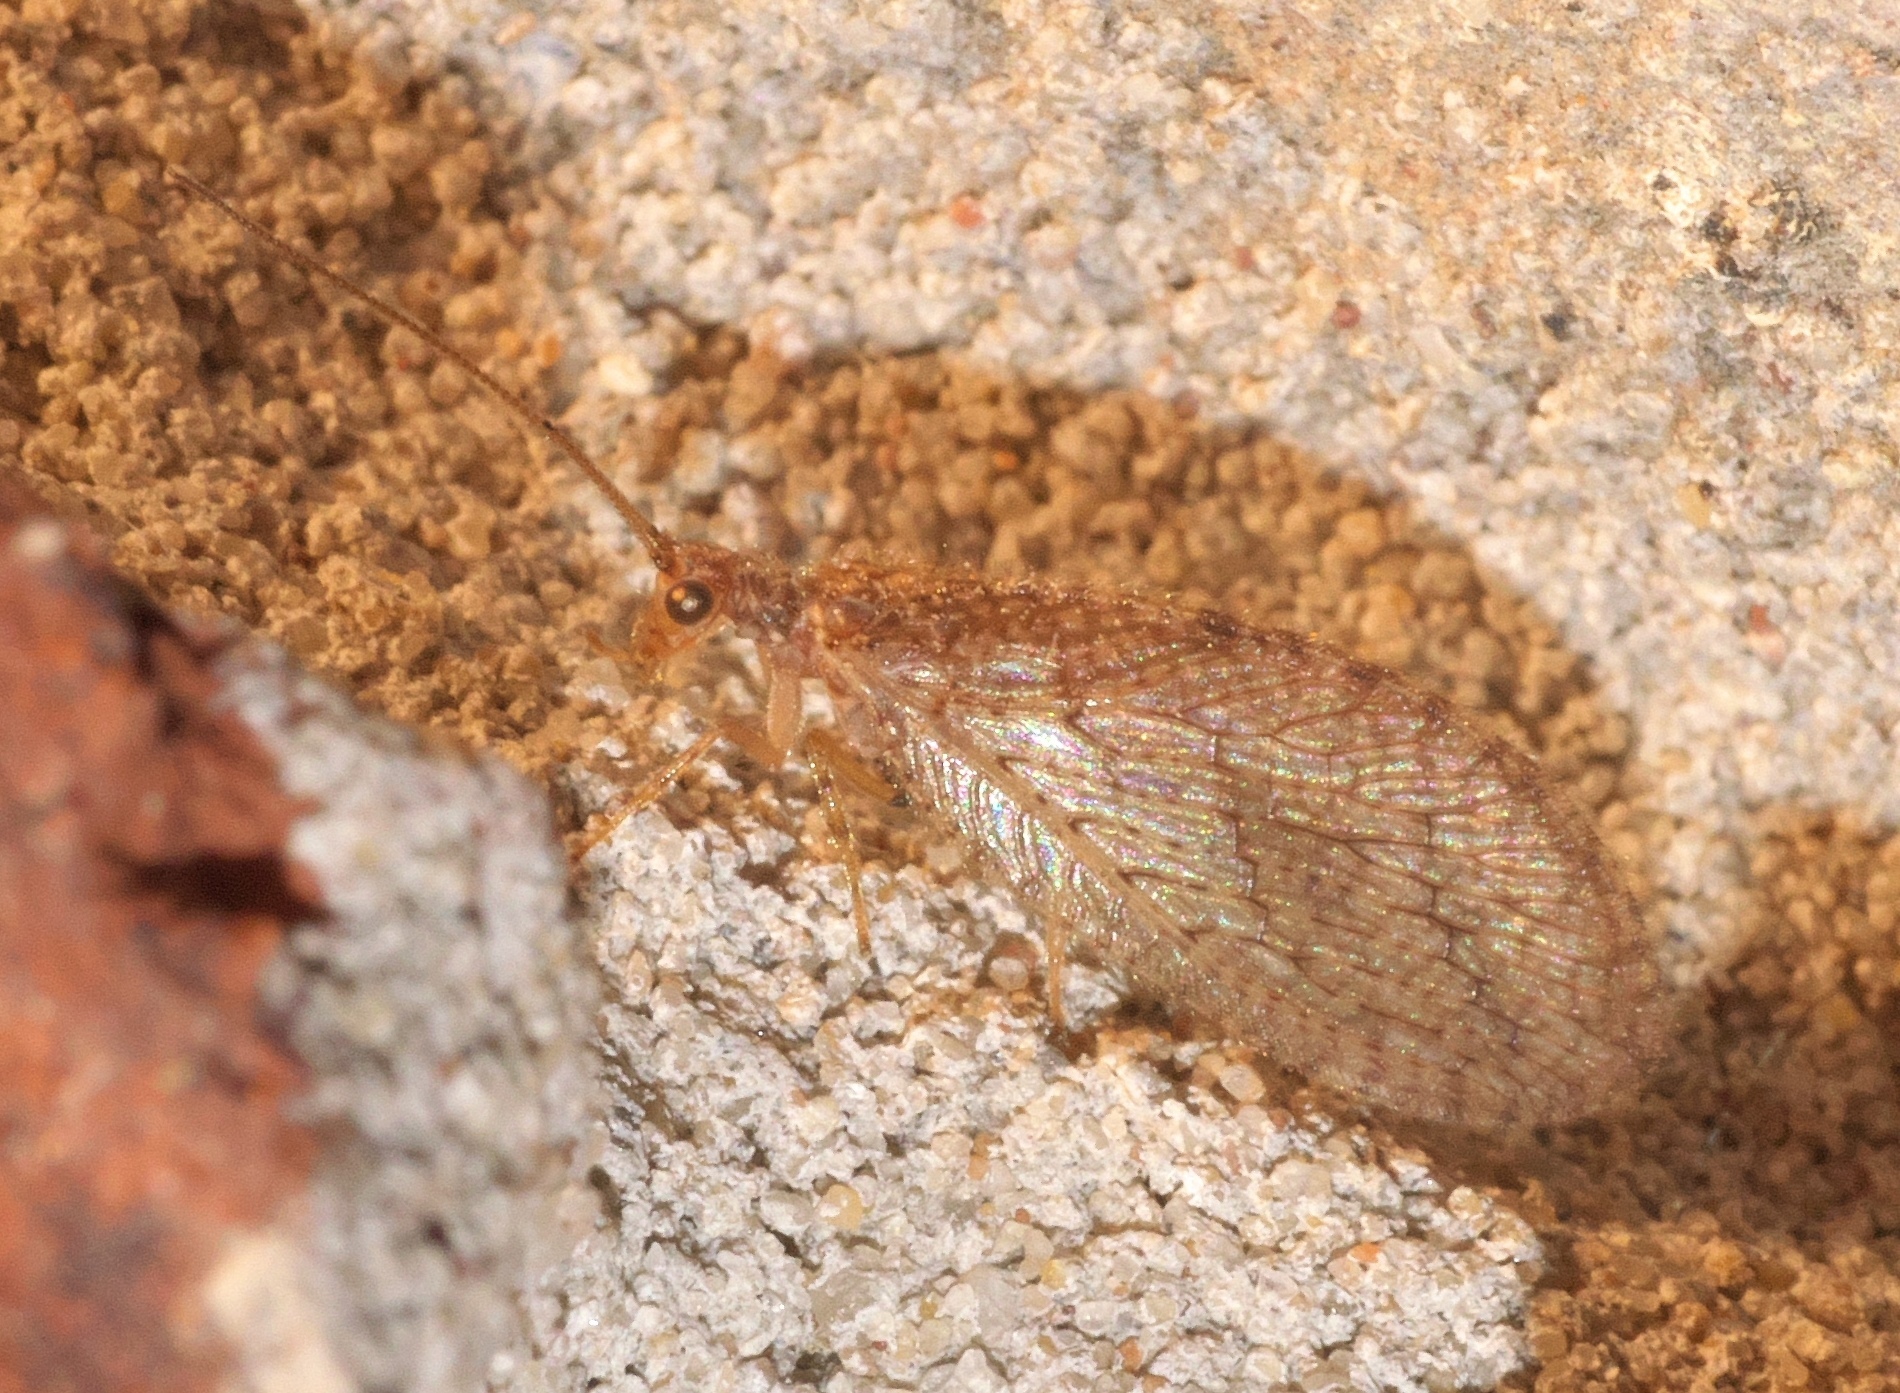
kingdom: Animalia
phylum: Arthropoda
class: Insecta
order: Neuroptera
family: Hemerobiidae
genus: Micromus
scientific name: Micromus posticus
